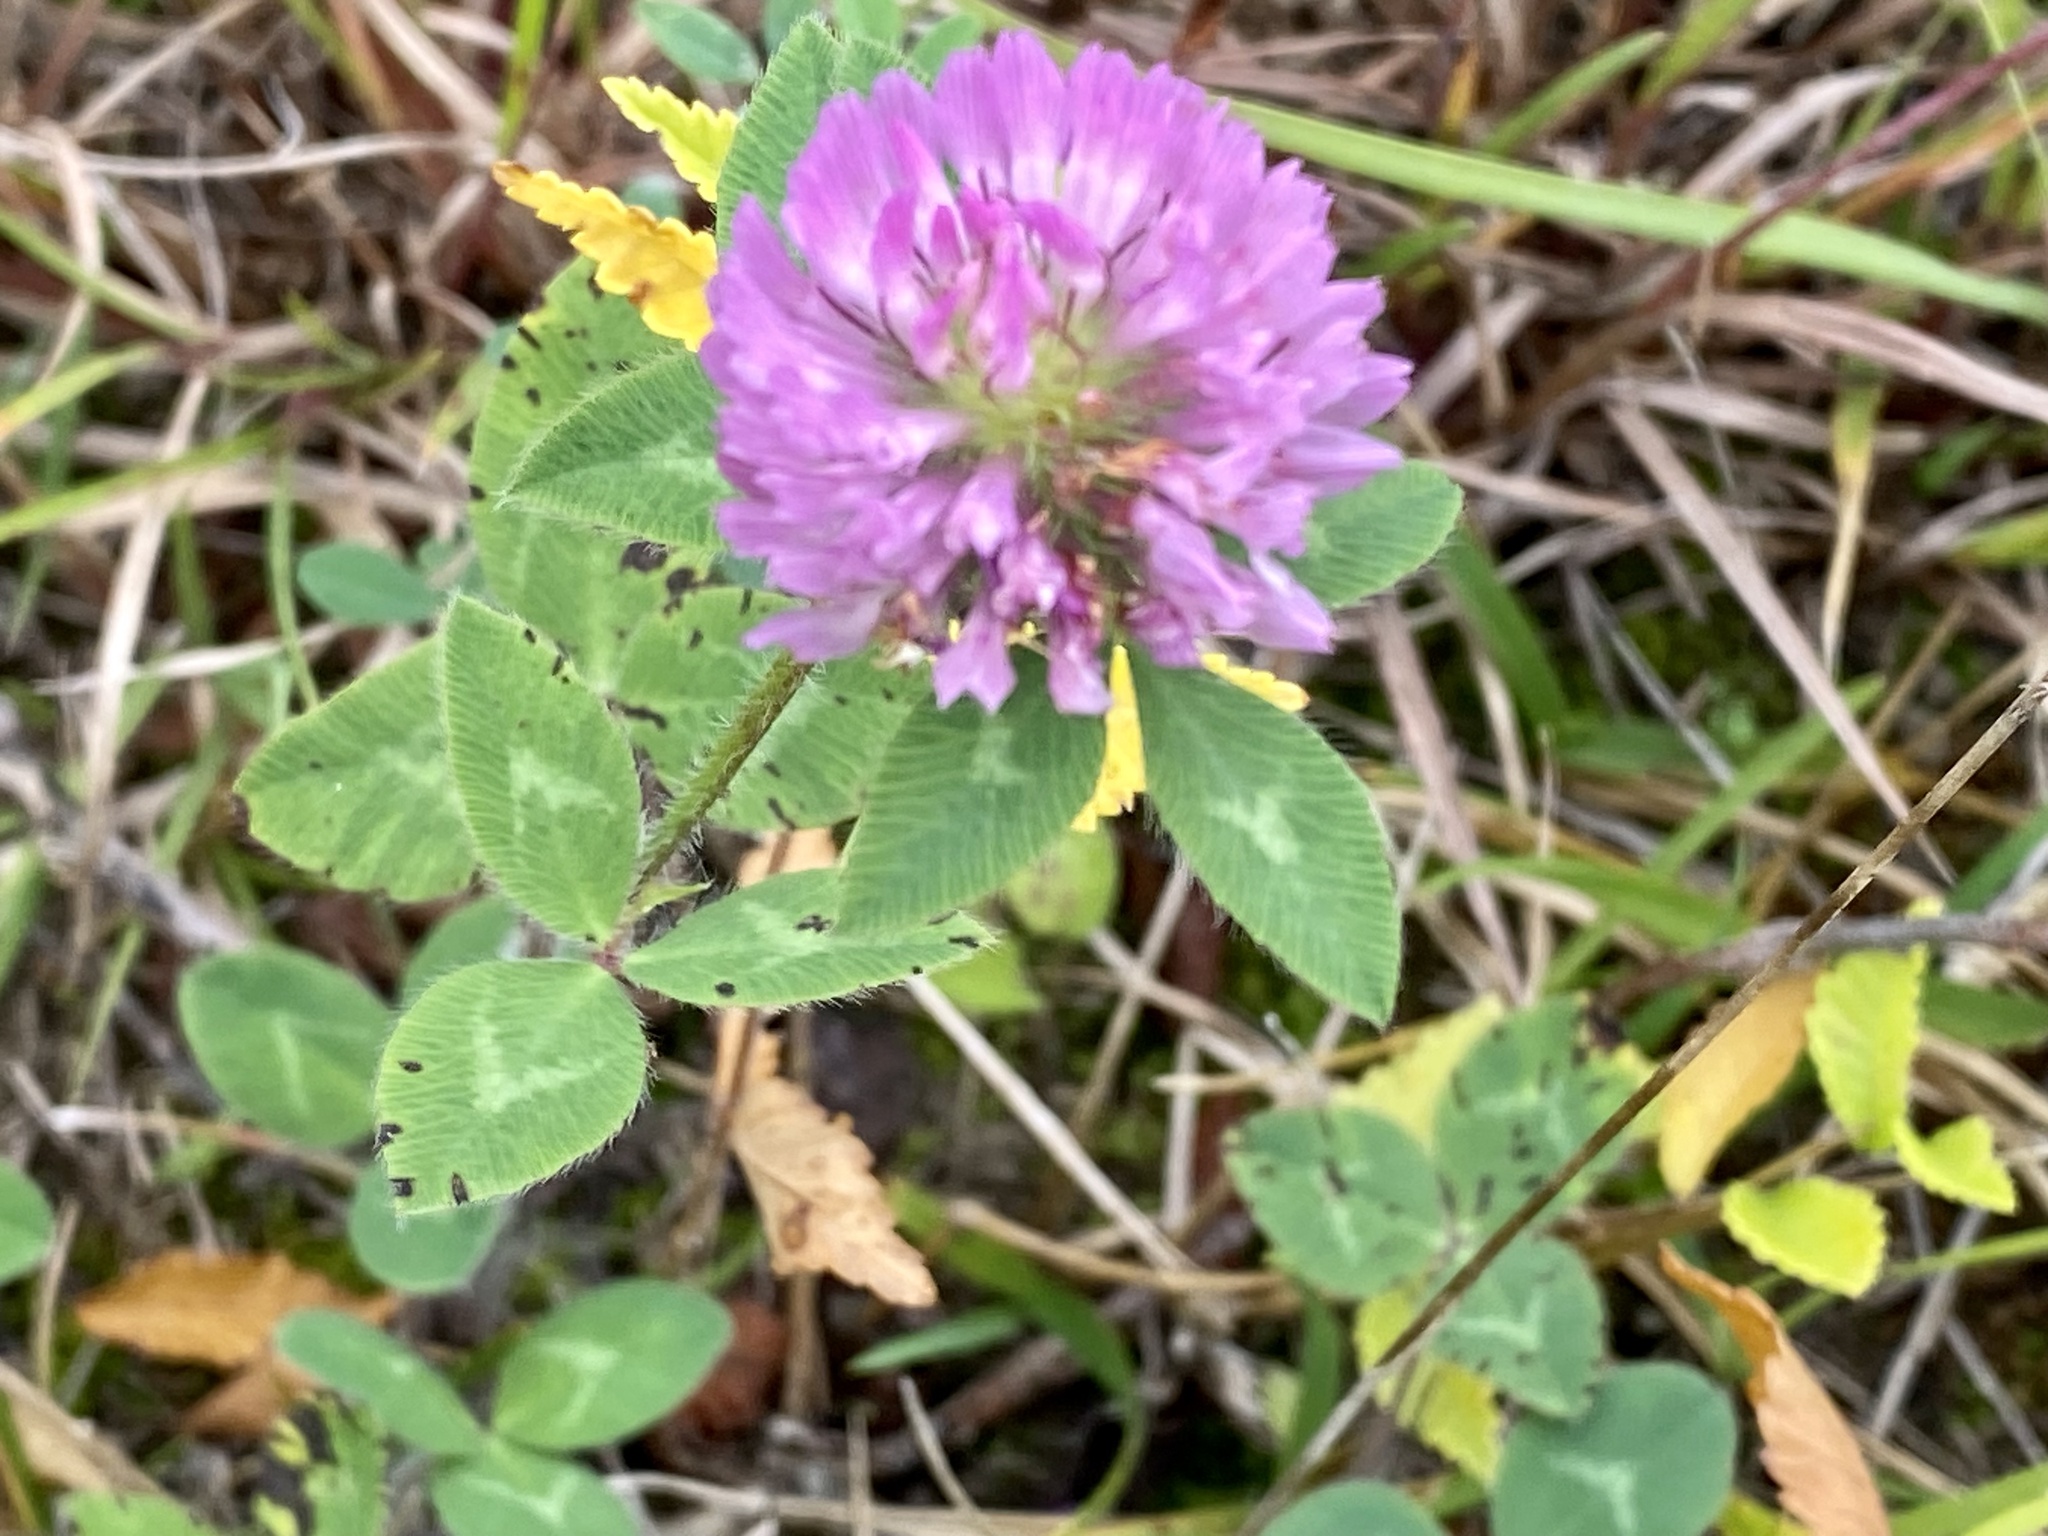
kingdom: Plantae
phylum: Tracheophyta
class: Magnoliopsida
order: Fabales
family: Fabaceae
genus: Trifolium
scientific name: Trifolium pratense
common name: Red clover
